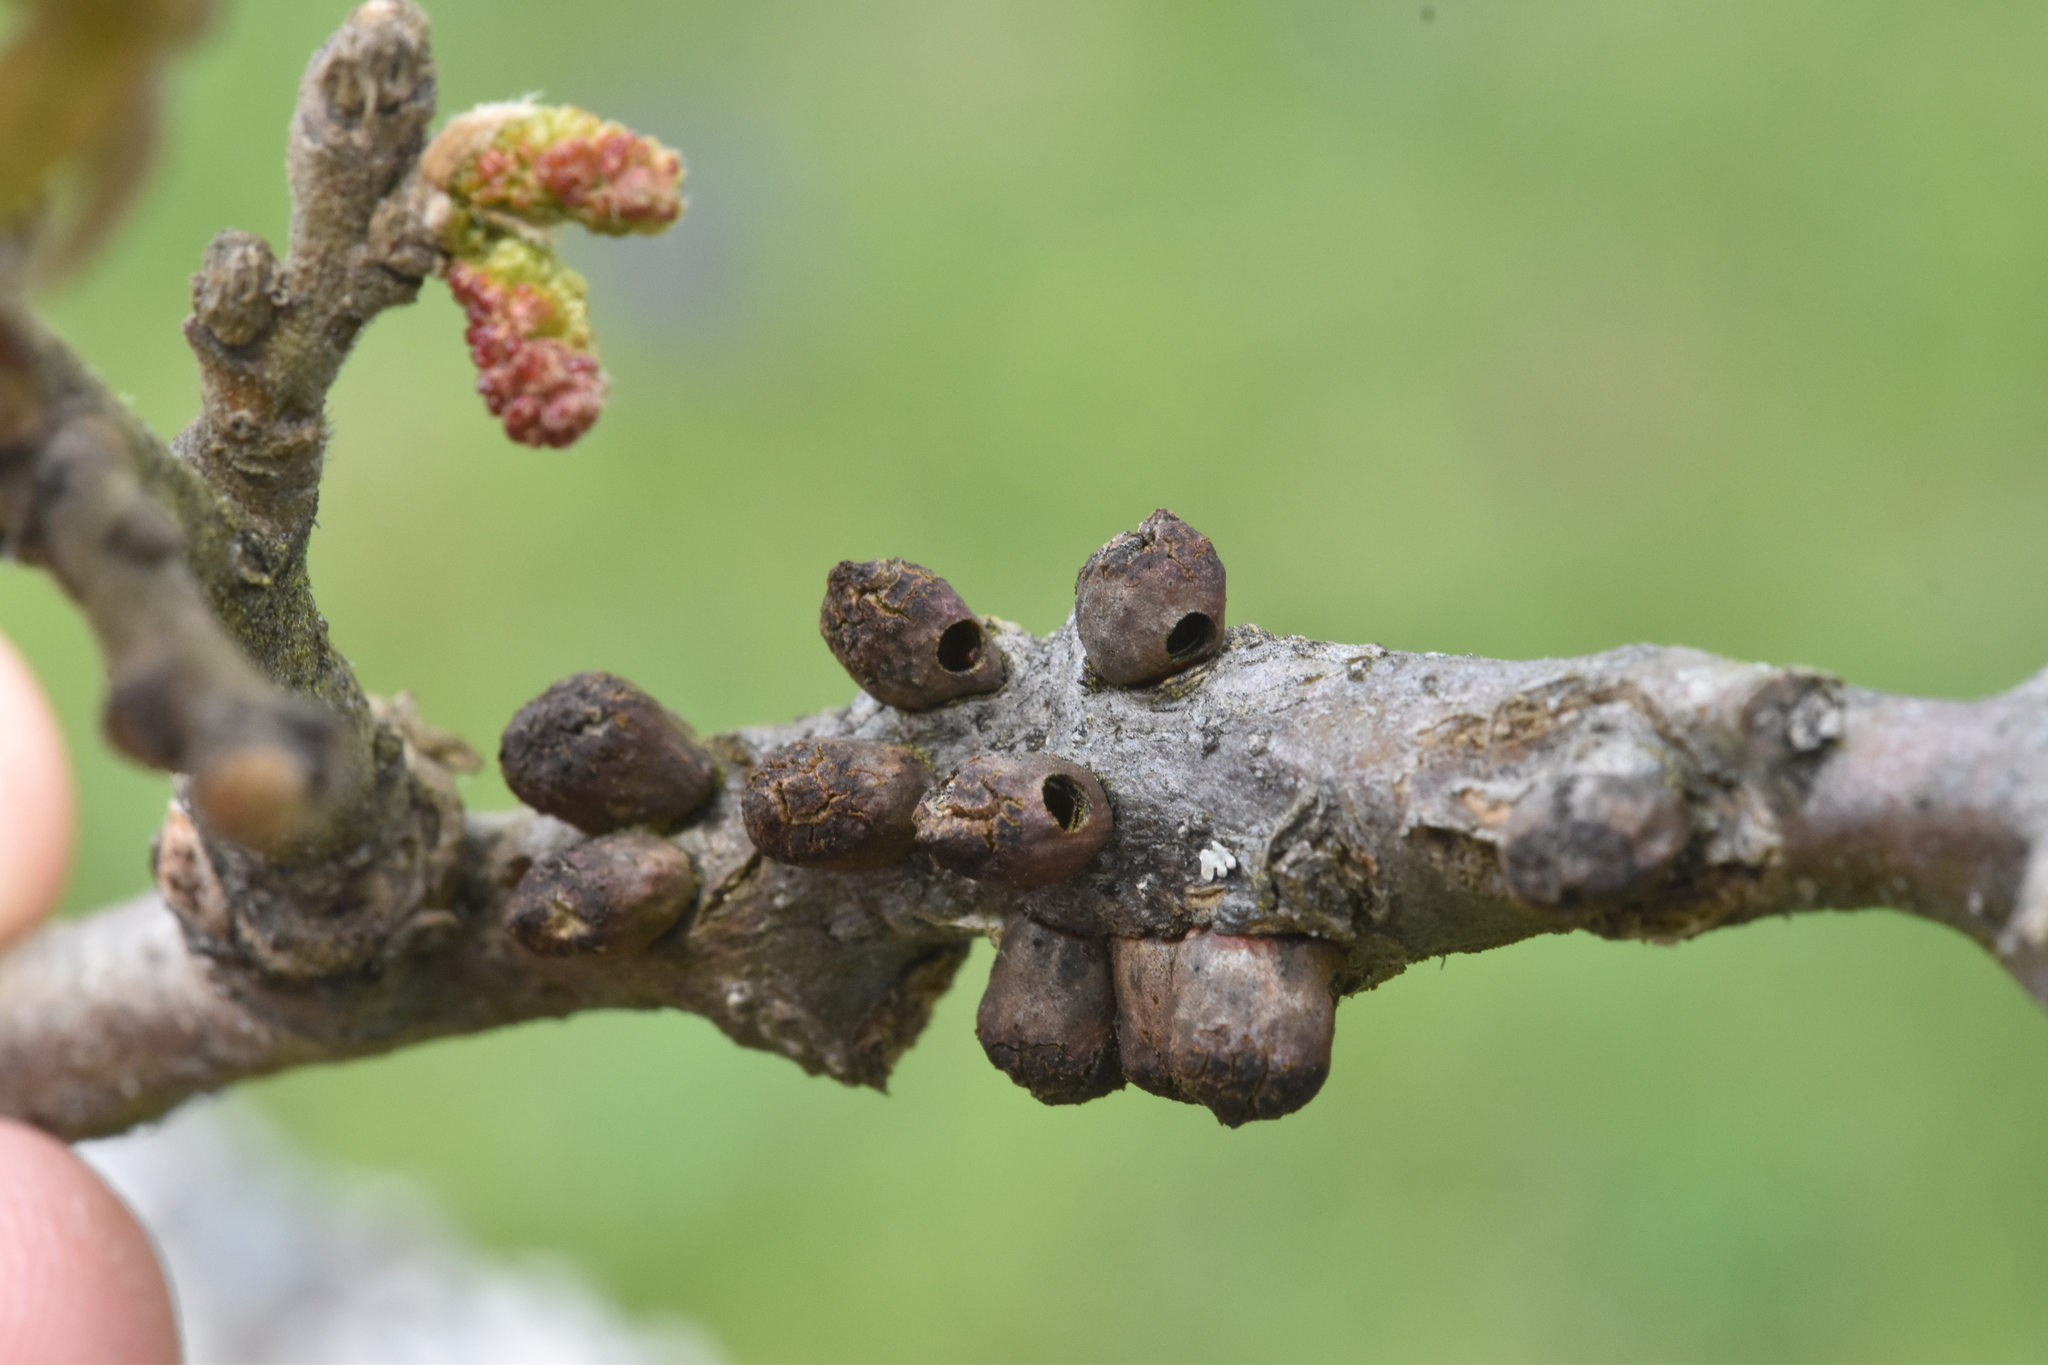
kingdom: Animalia
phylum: Arthropoda
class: Insecta
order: Hymenoptera
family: Cynipidae
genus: Disholcaspis
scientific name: Disholcaspis
